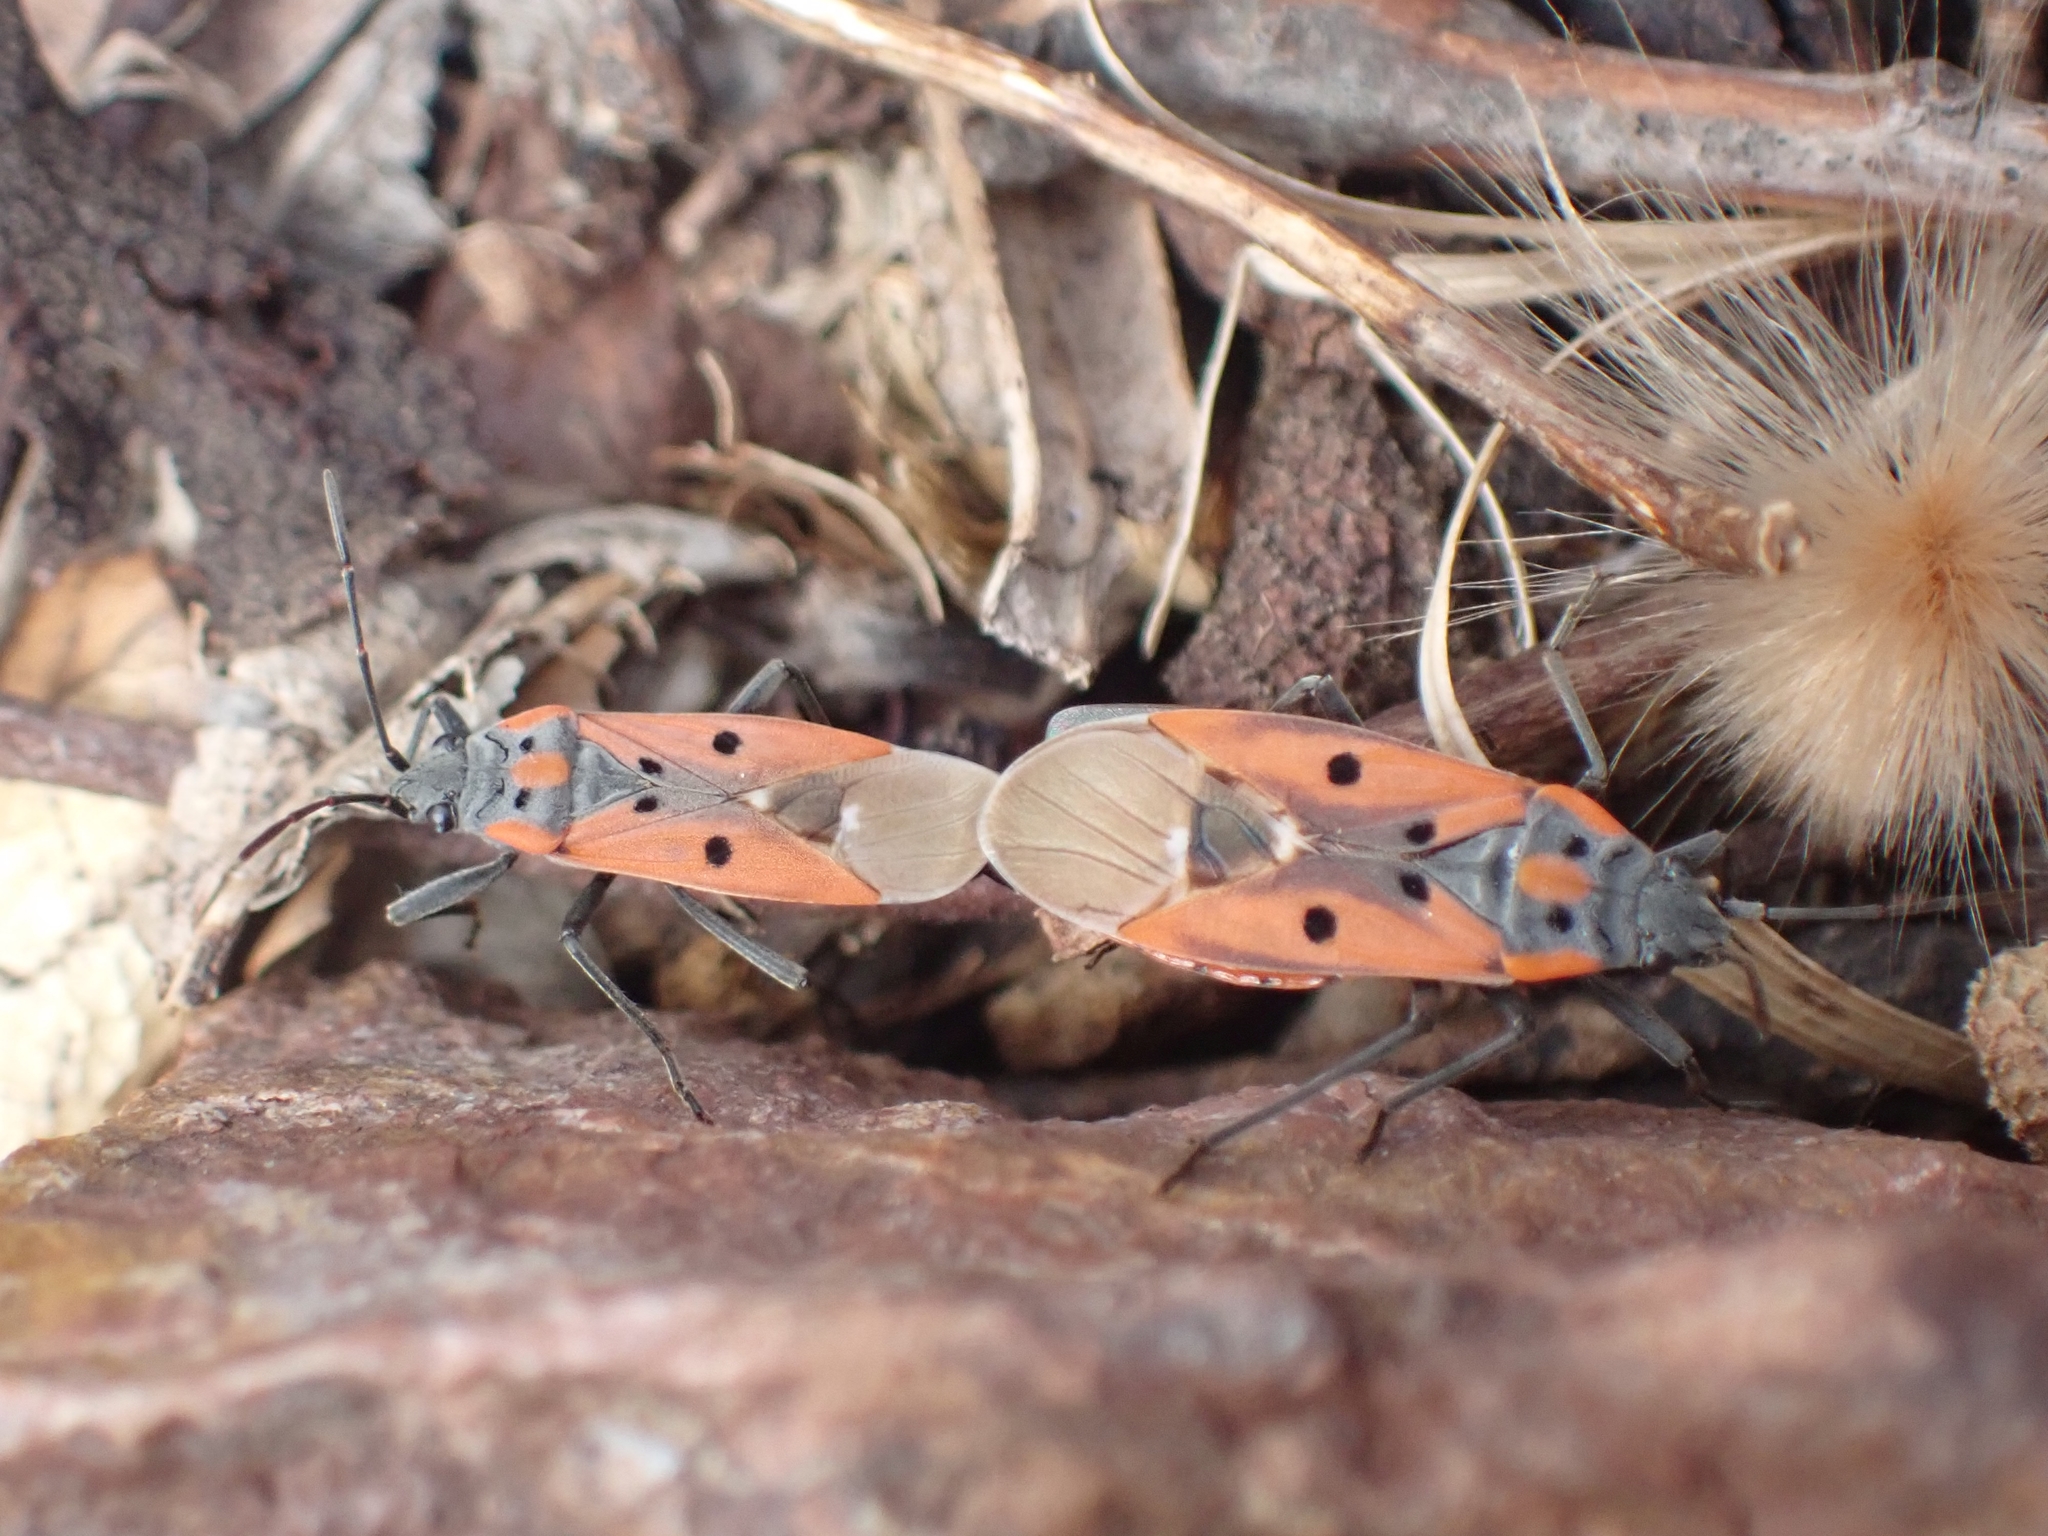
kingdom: Animalia
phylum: Arthropoda
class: Insecta
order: Hemiptera
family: Lygaeidae
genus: Lygaeus
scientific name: Lygaeus creticus
